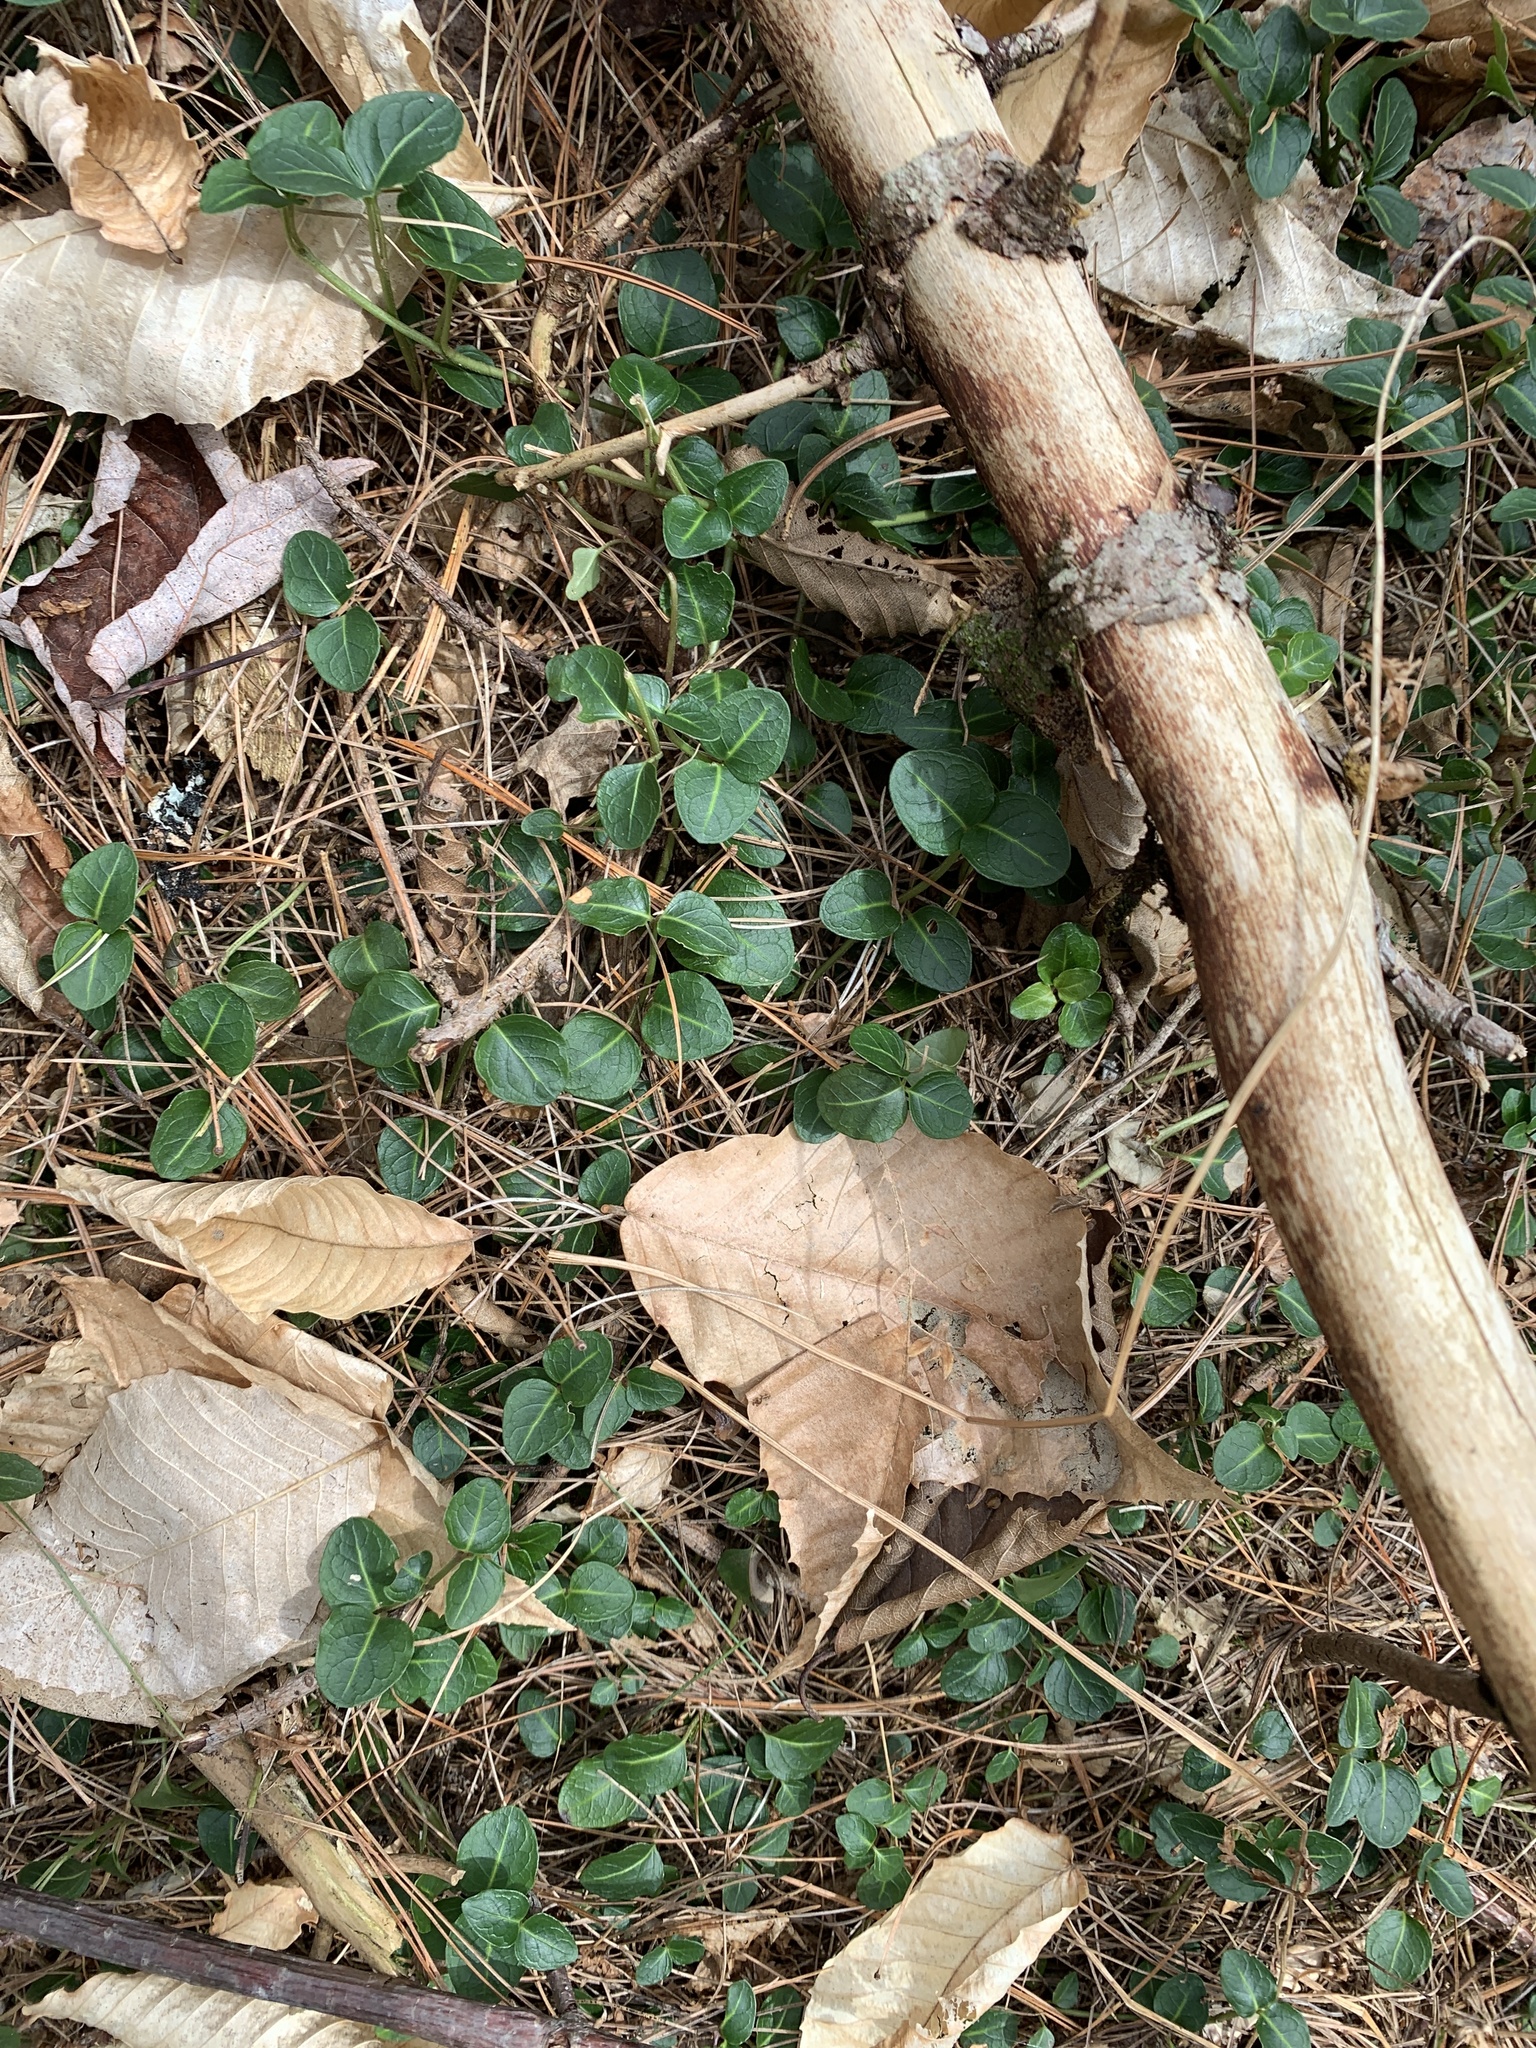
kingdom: Plantae
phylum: Tracheophyta
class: Magnoliopsida
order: Gentianales
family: Rubiaceae
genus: Mitchella
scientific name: Mitchella repens
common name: Partridge-berry
